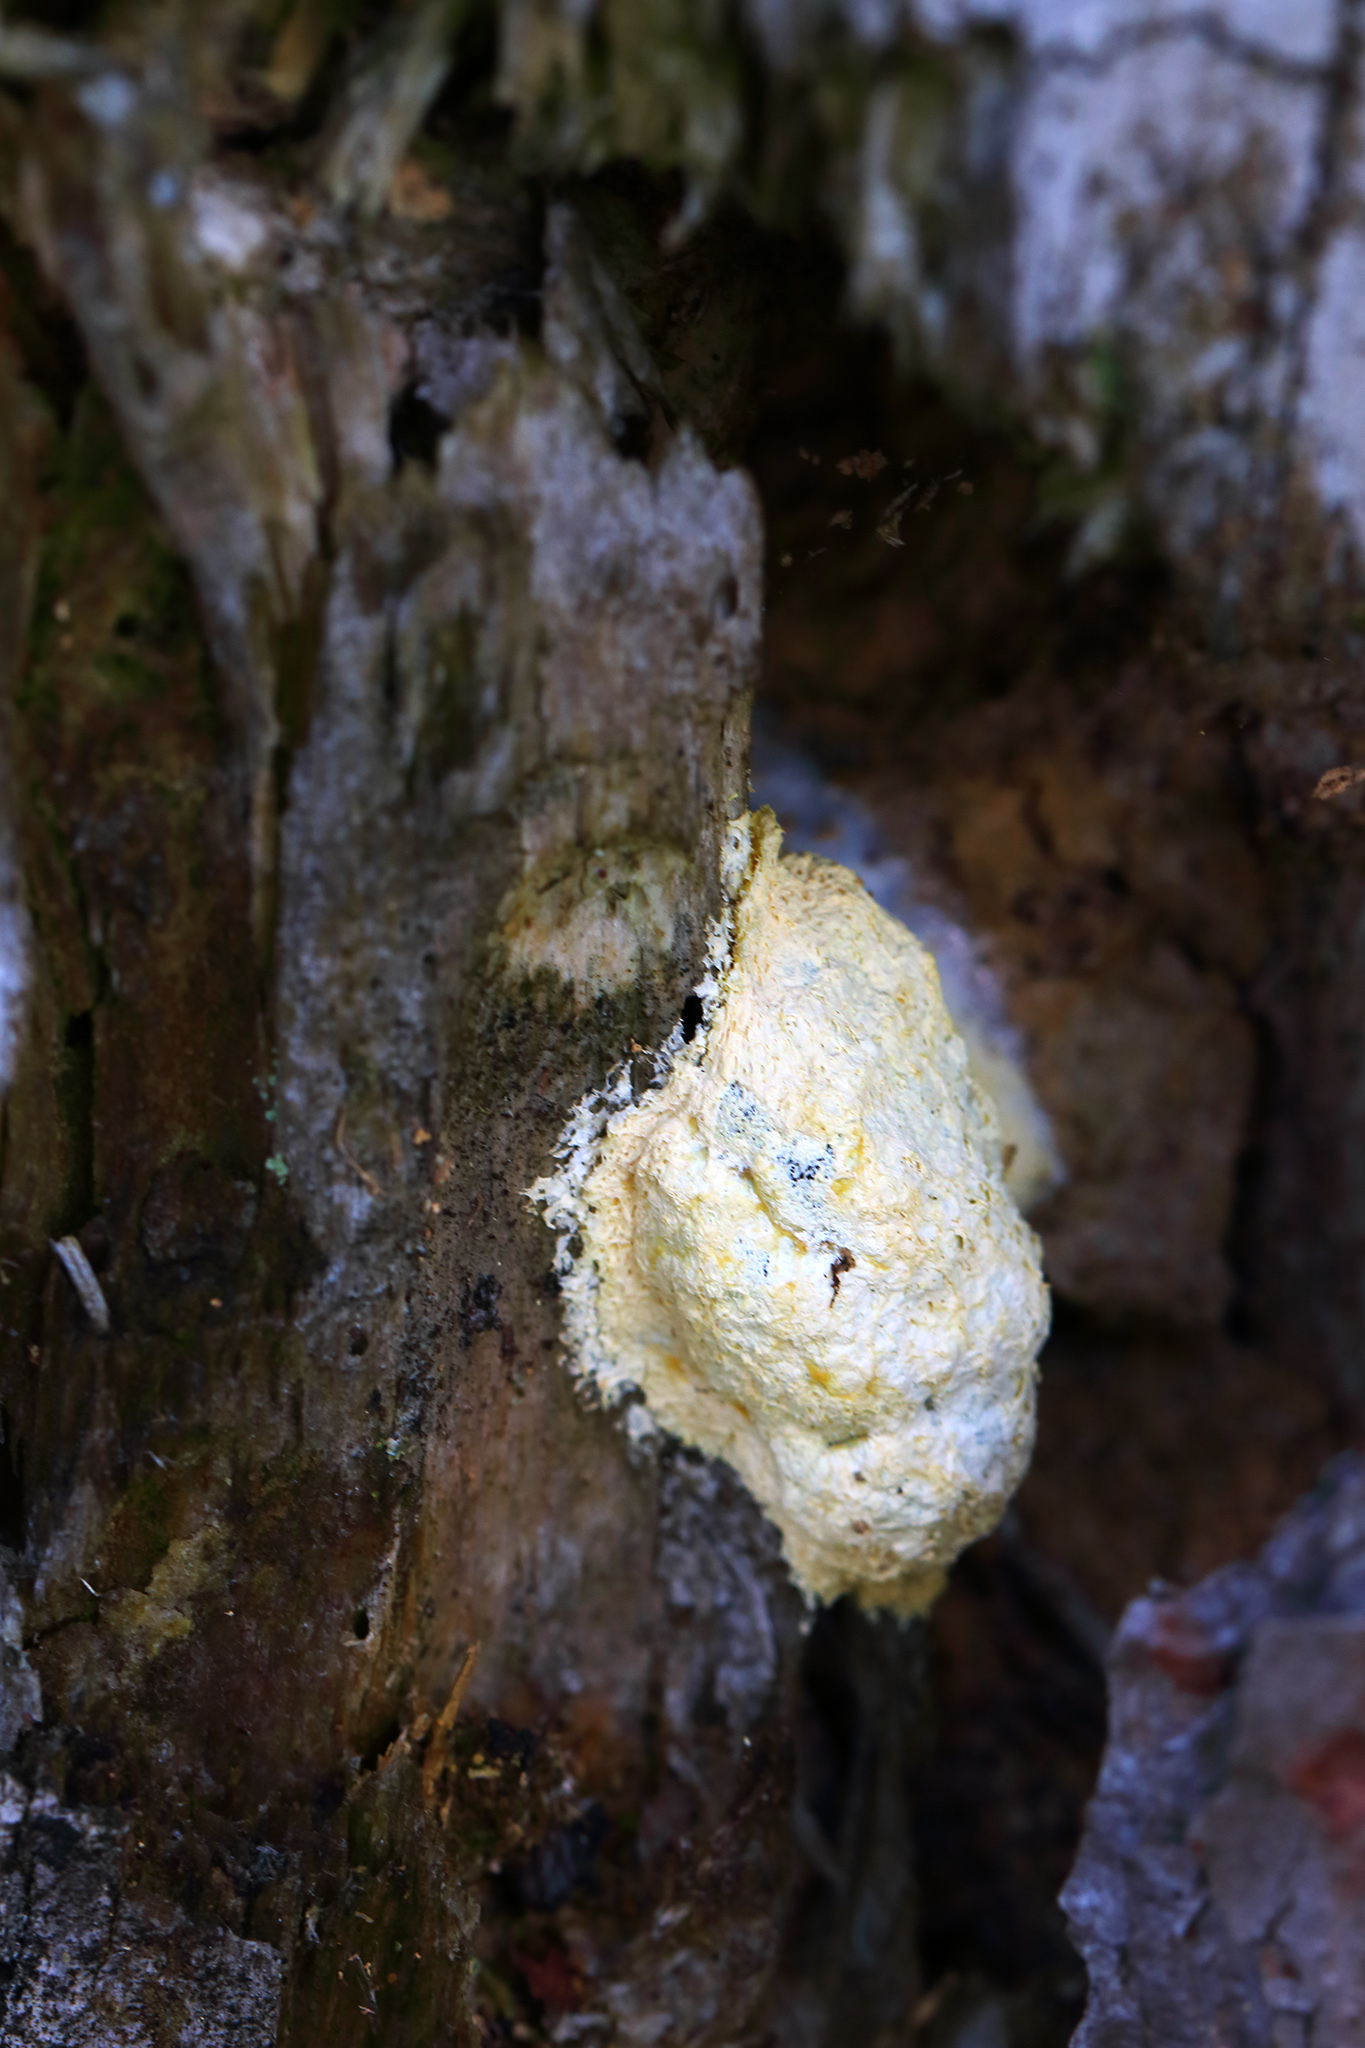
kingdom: Protozoa
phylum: Mycetozoa
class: Myxomycetes
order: Physarales
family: Physaraceae
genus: Fuligo
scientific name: Fuligo septica
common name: Dog vomit slime mold
